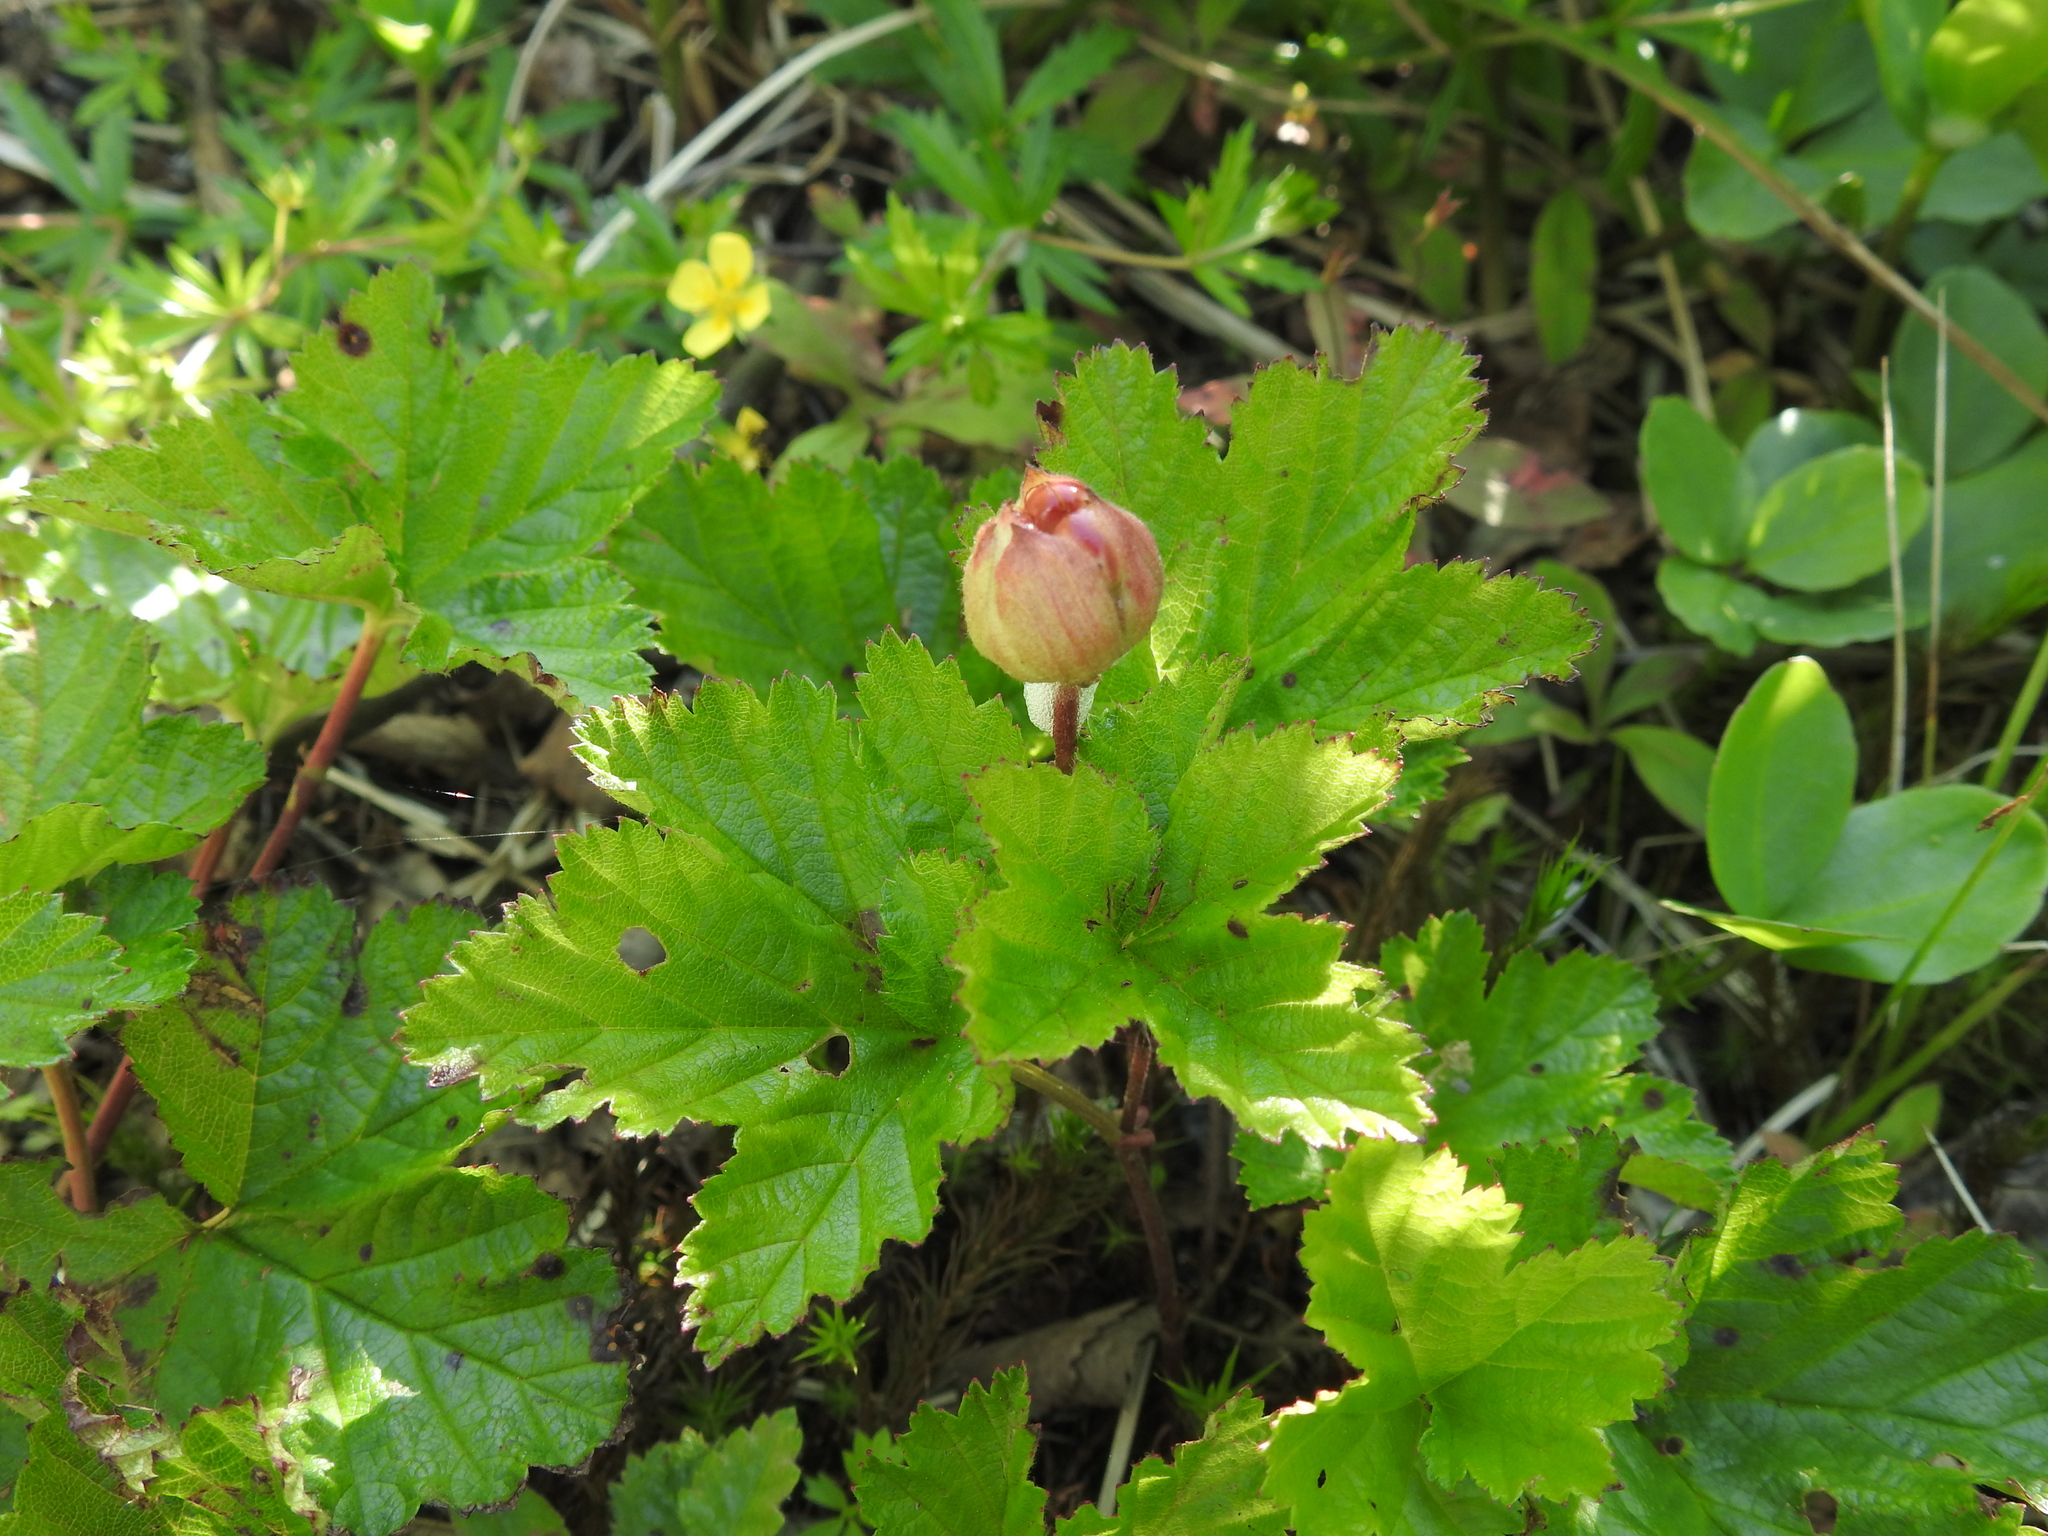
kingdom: Plantae
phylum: Tracheophyta
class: Magnoliopsida
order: Rosales
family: Rosaceae
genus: Rubus
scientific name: Rubus chamaemorus
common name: Cloudberry
